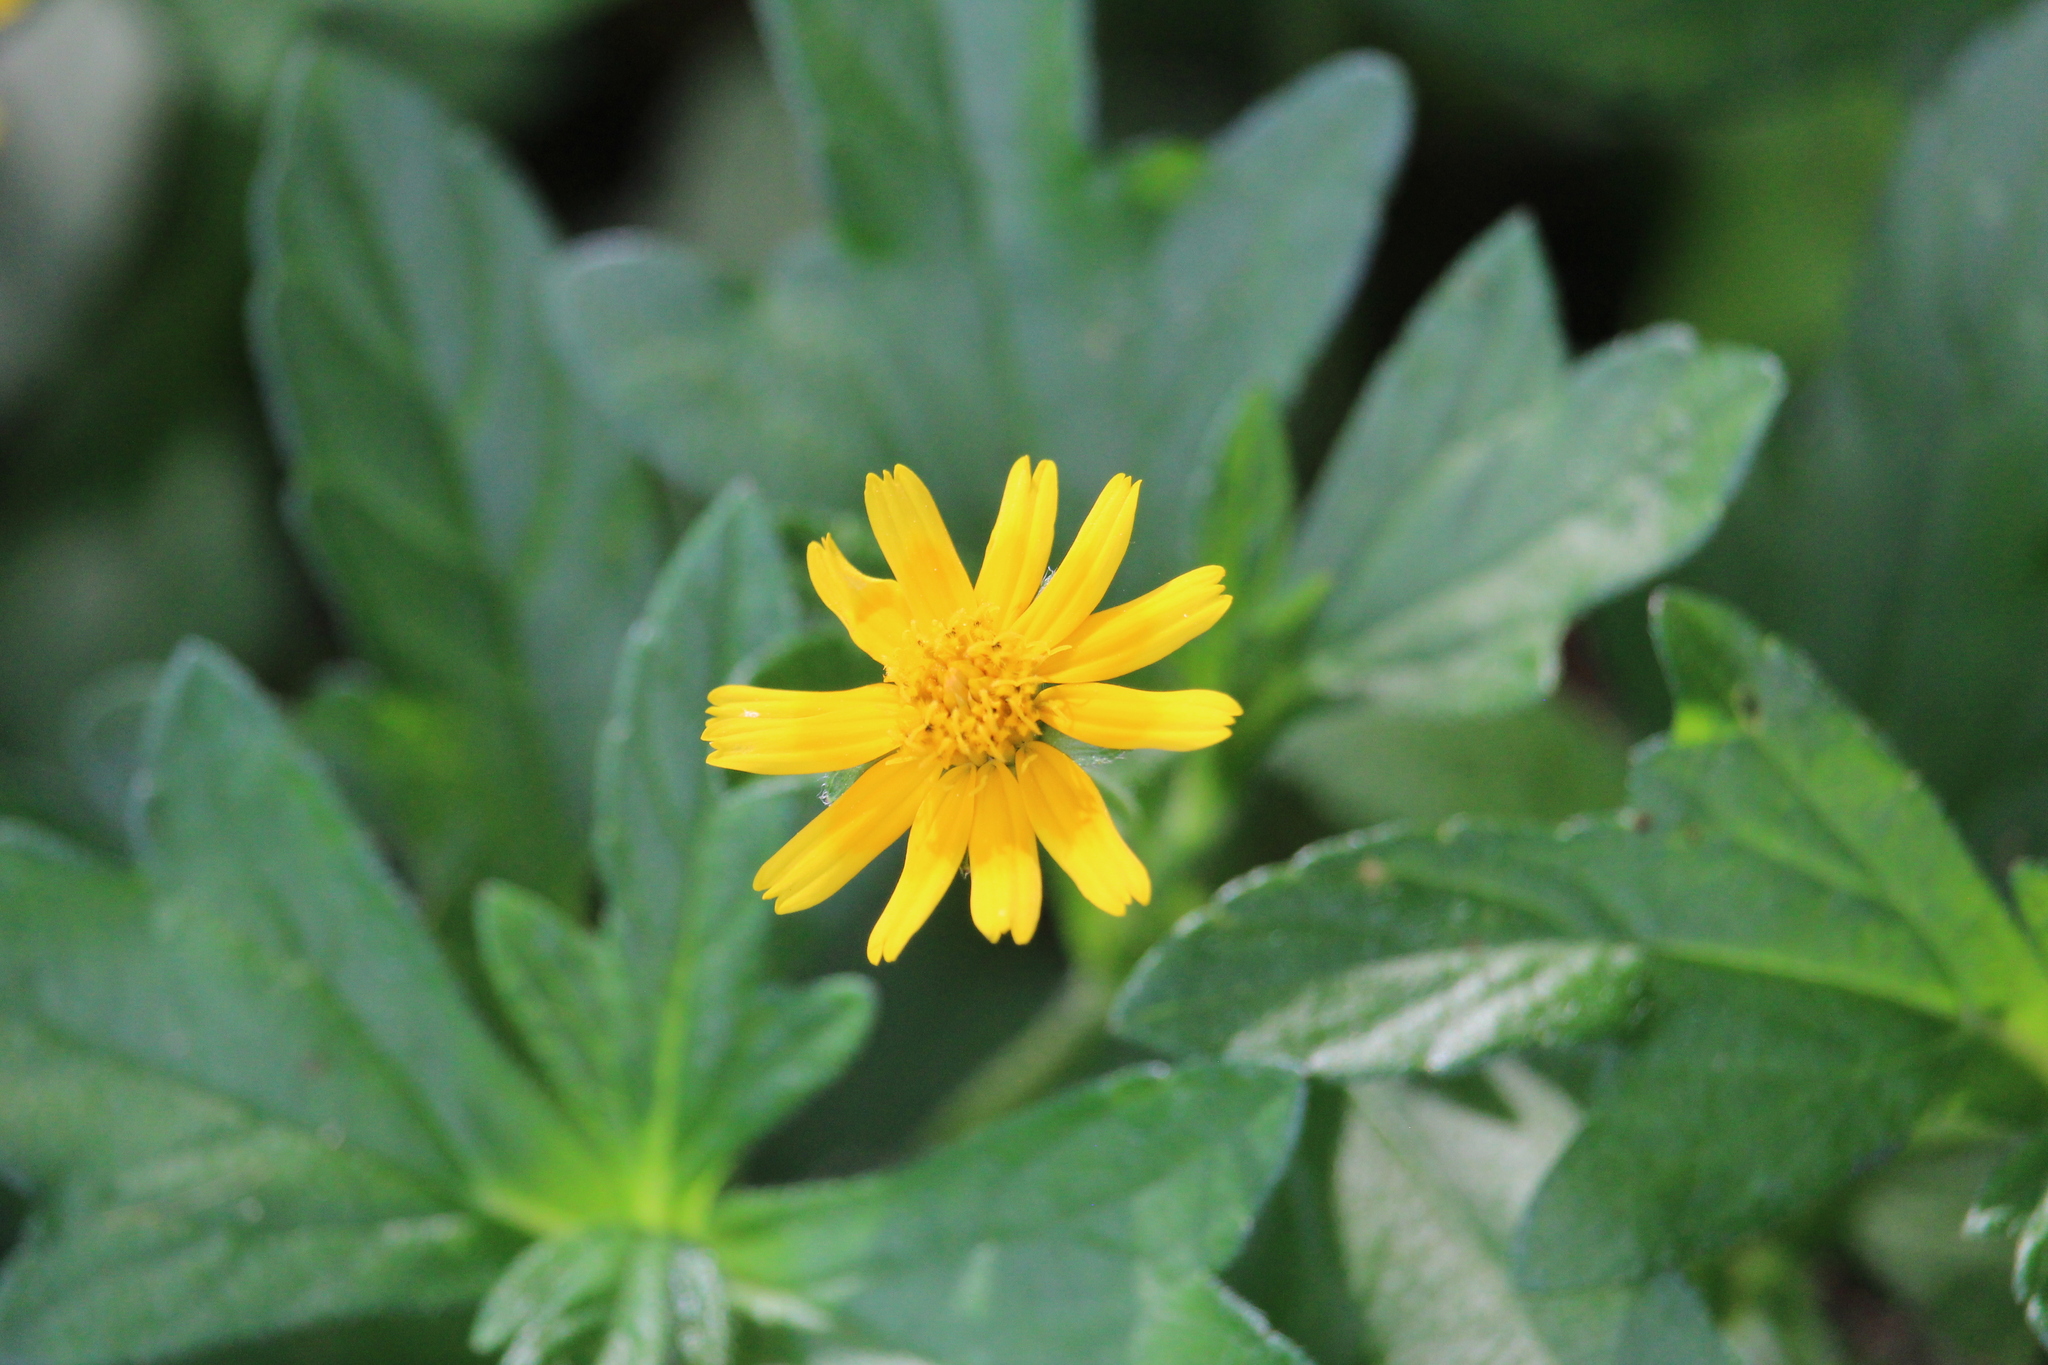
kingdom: Plantae
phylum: Tracheophyta
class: Magnoliopsida
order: Asterales
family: Asteraceae
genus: Sphagneticola
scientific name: Sphagneticola trilobata
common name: Bay biscayne creeping-oxeye
